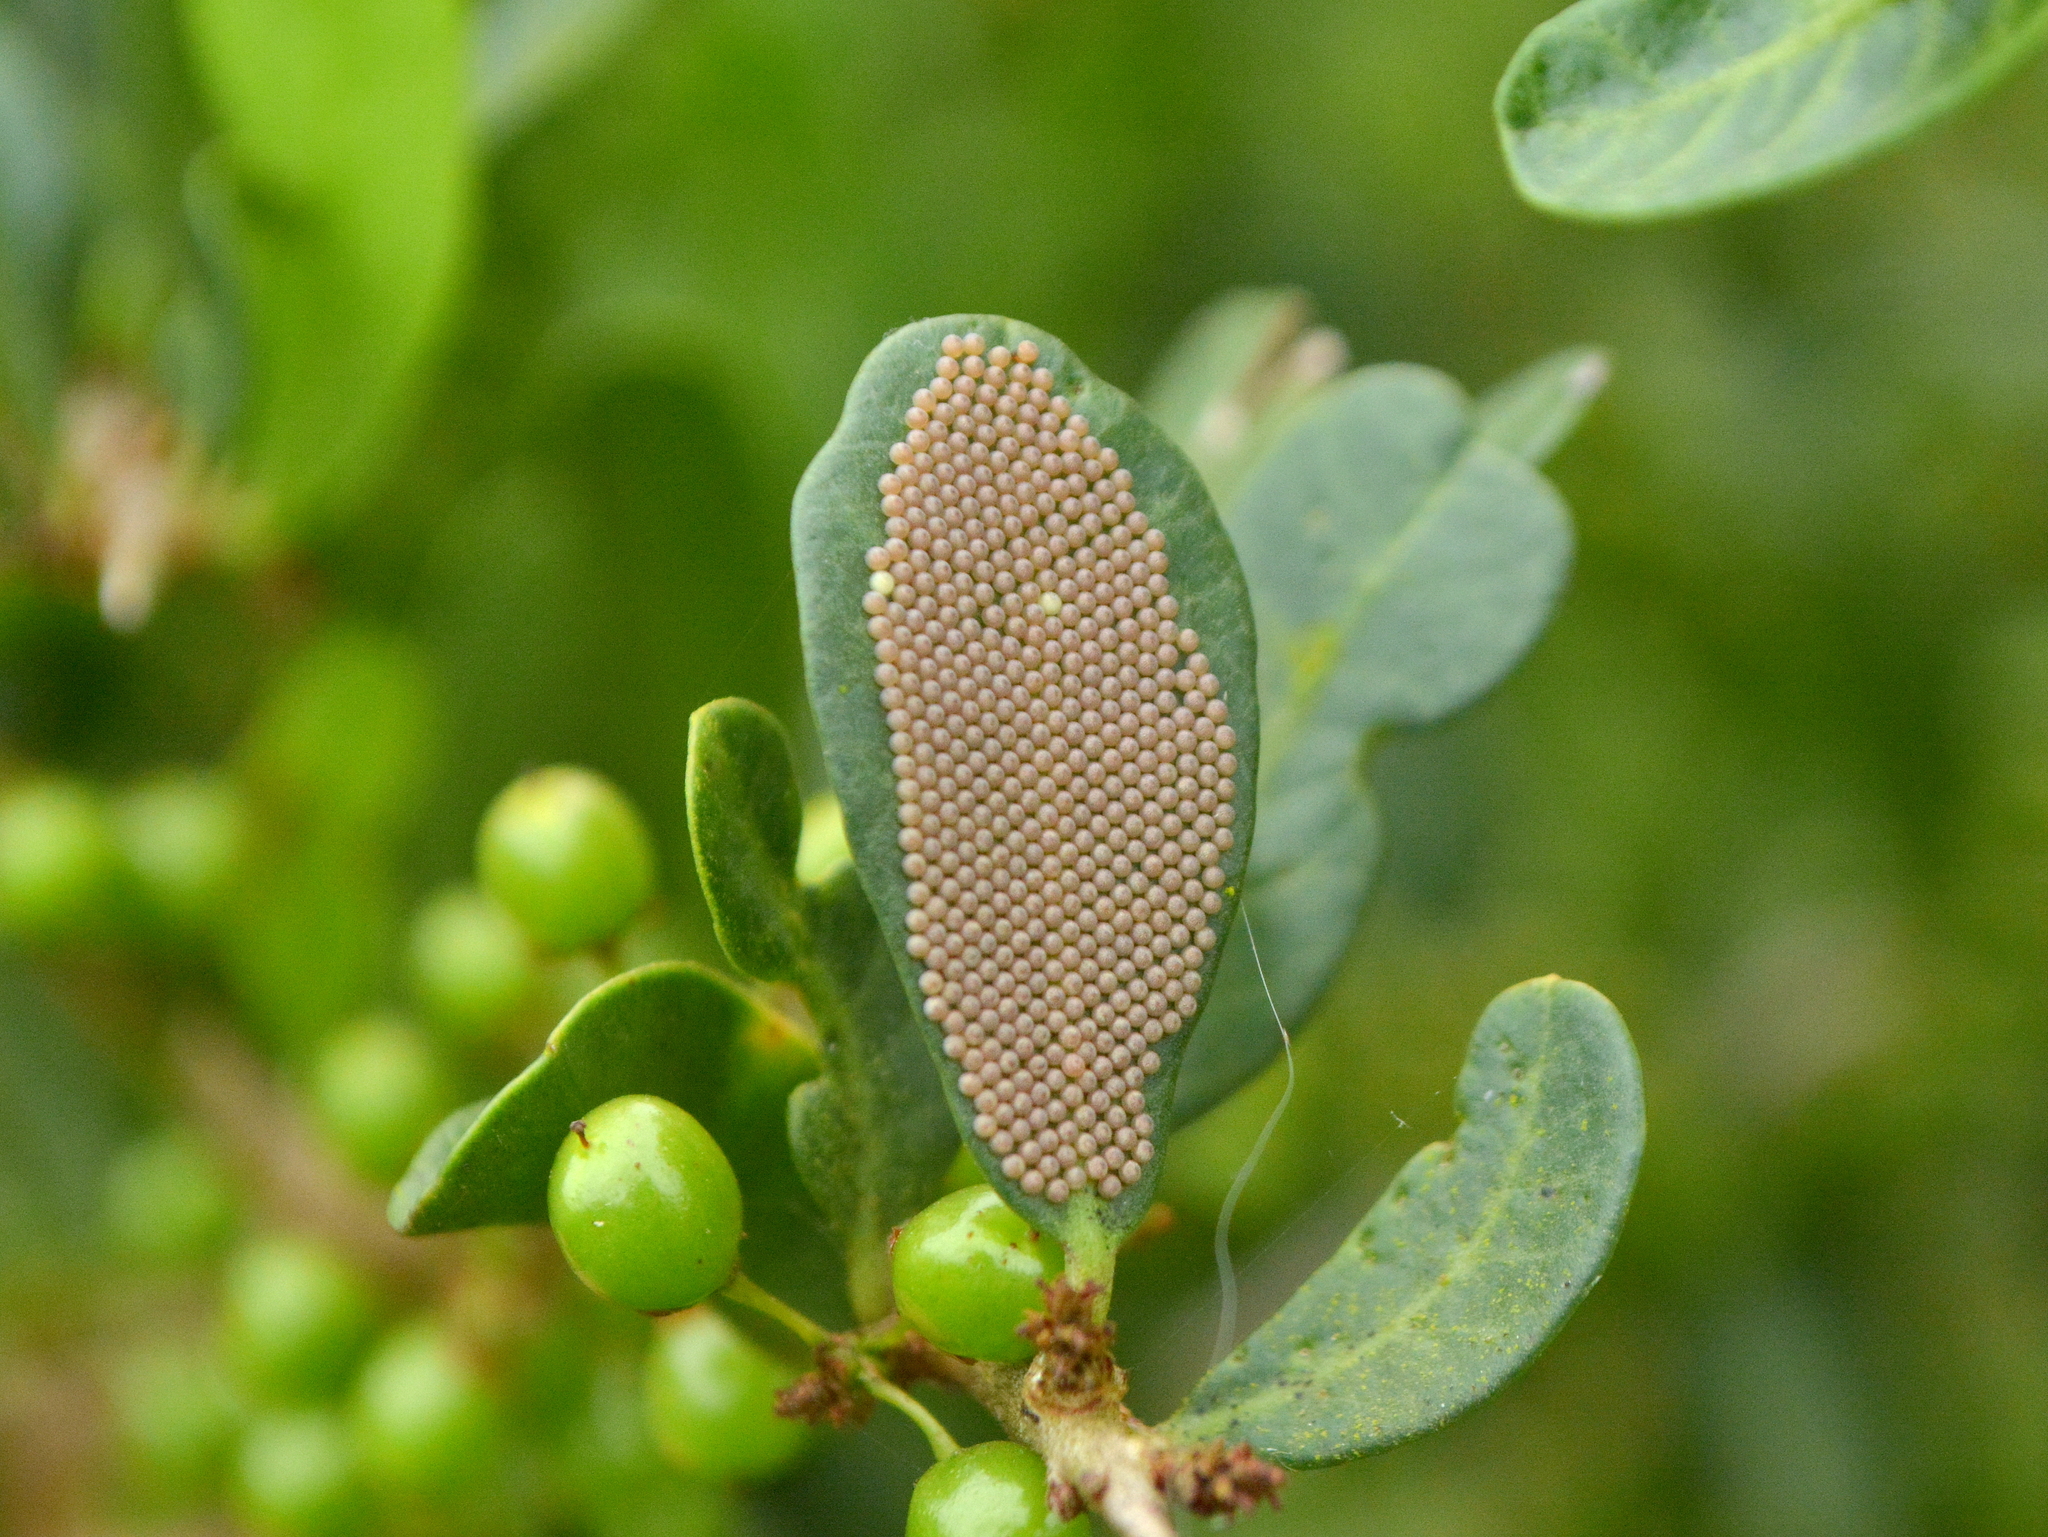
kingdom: Animalia
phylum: Arthropoda
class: Insecta
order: Lepidoptera
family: Notodontidae
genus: Tecmessa
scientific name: Tecmessa annulipes
